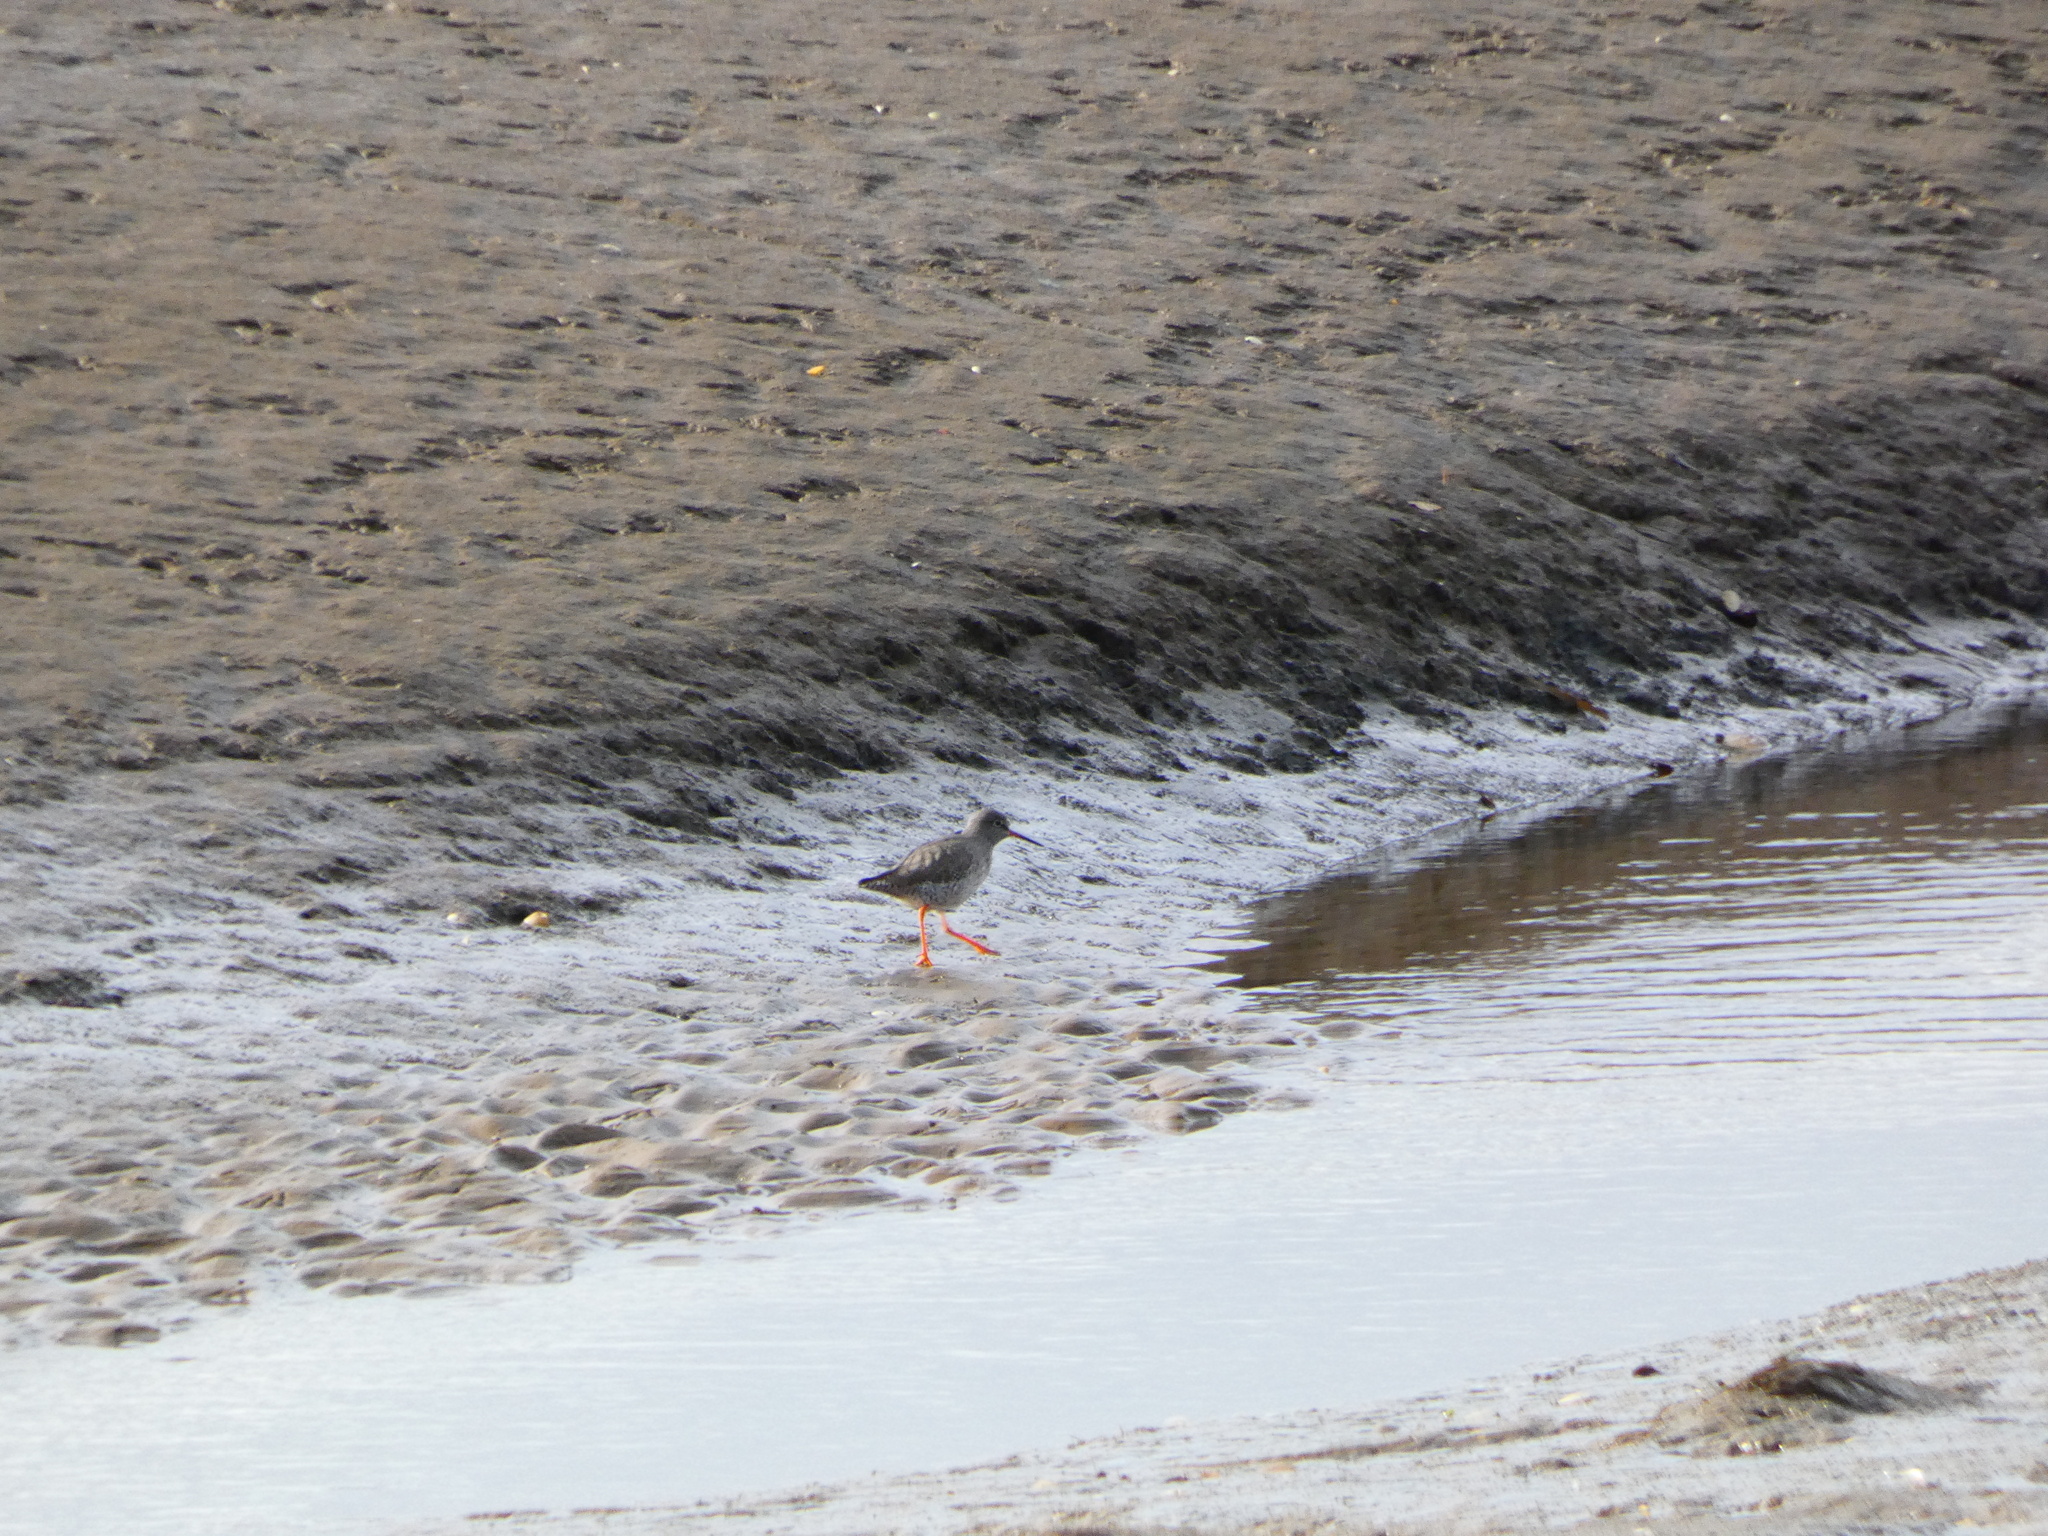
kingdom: Animalia
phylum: Chordata
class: Aves
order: Charadriiformes
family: Scolopacidae
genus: Tringa
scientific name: Tringa totanus
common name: Common redshank
